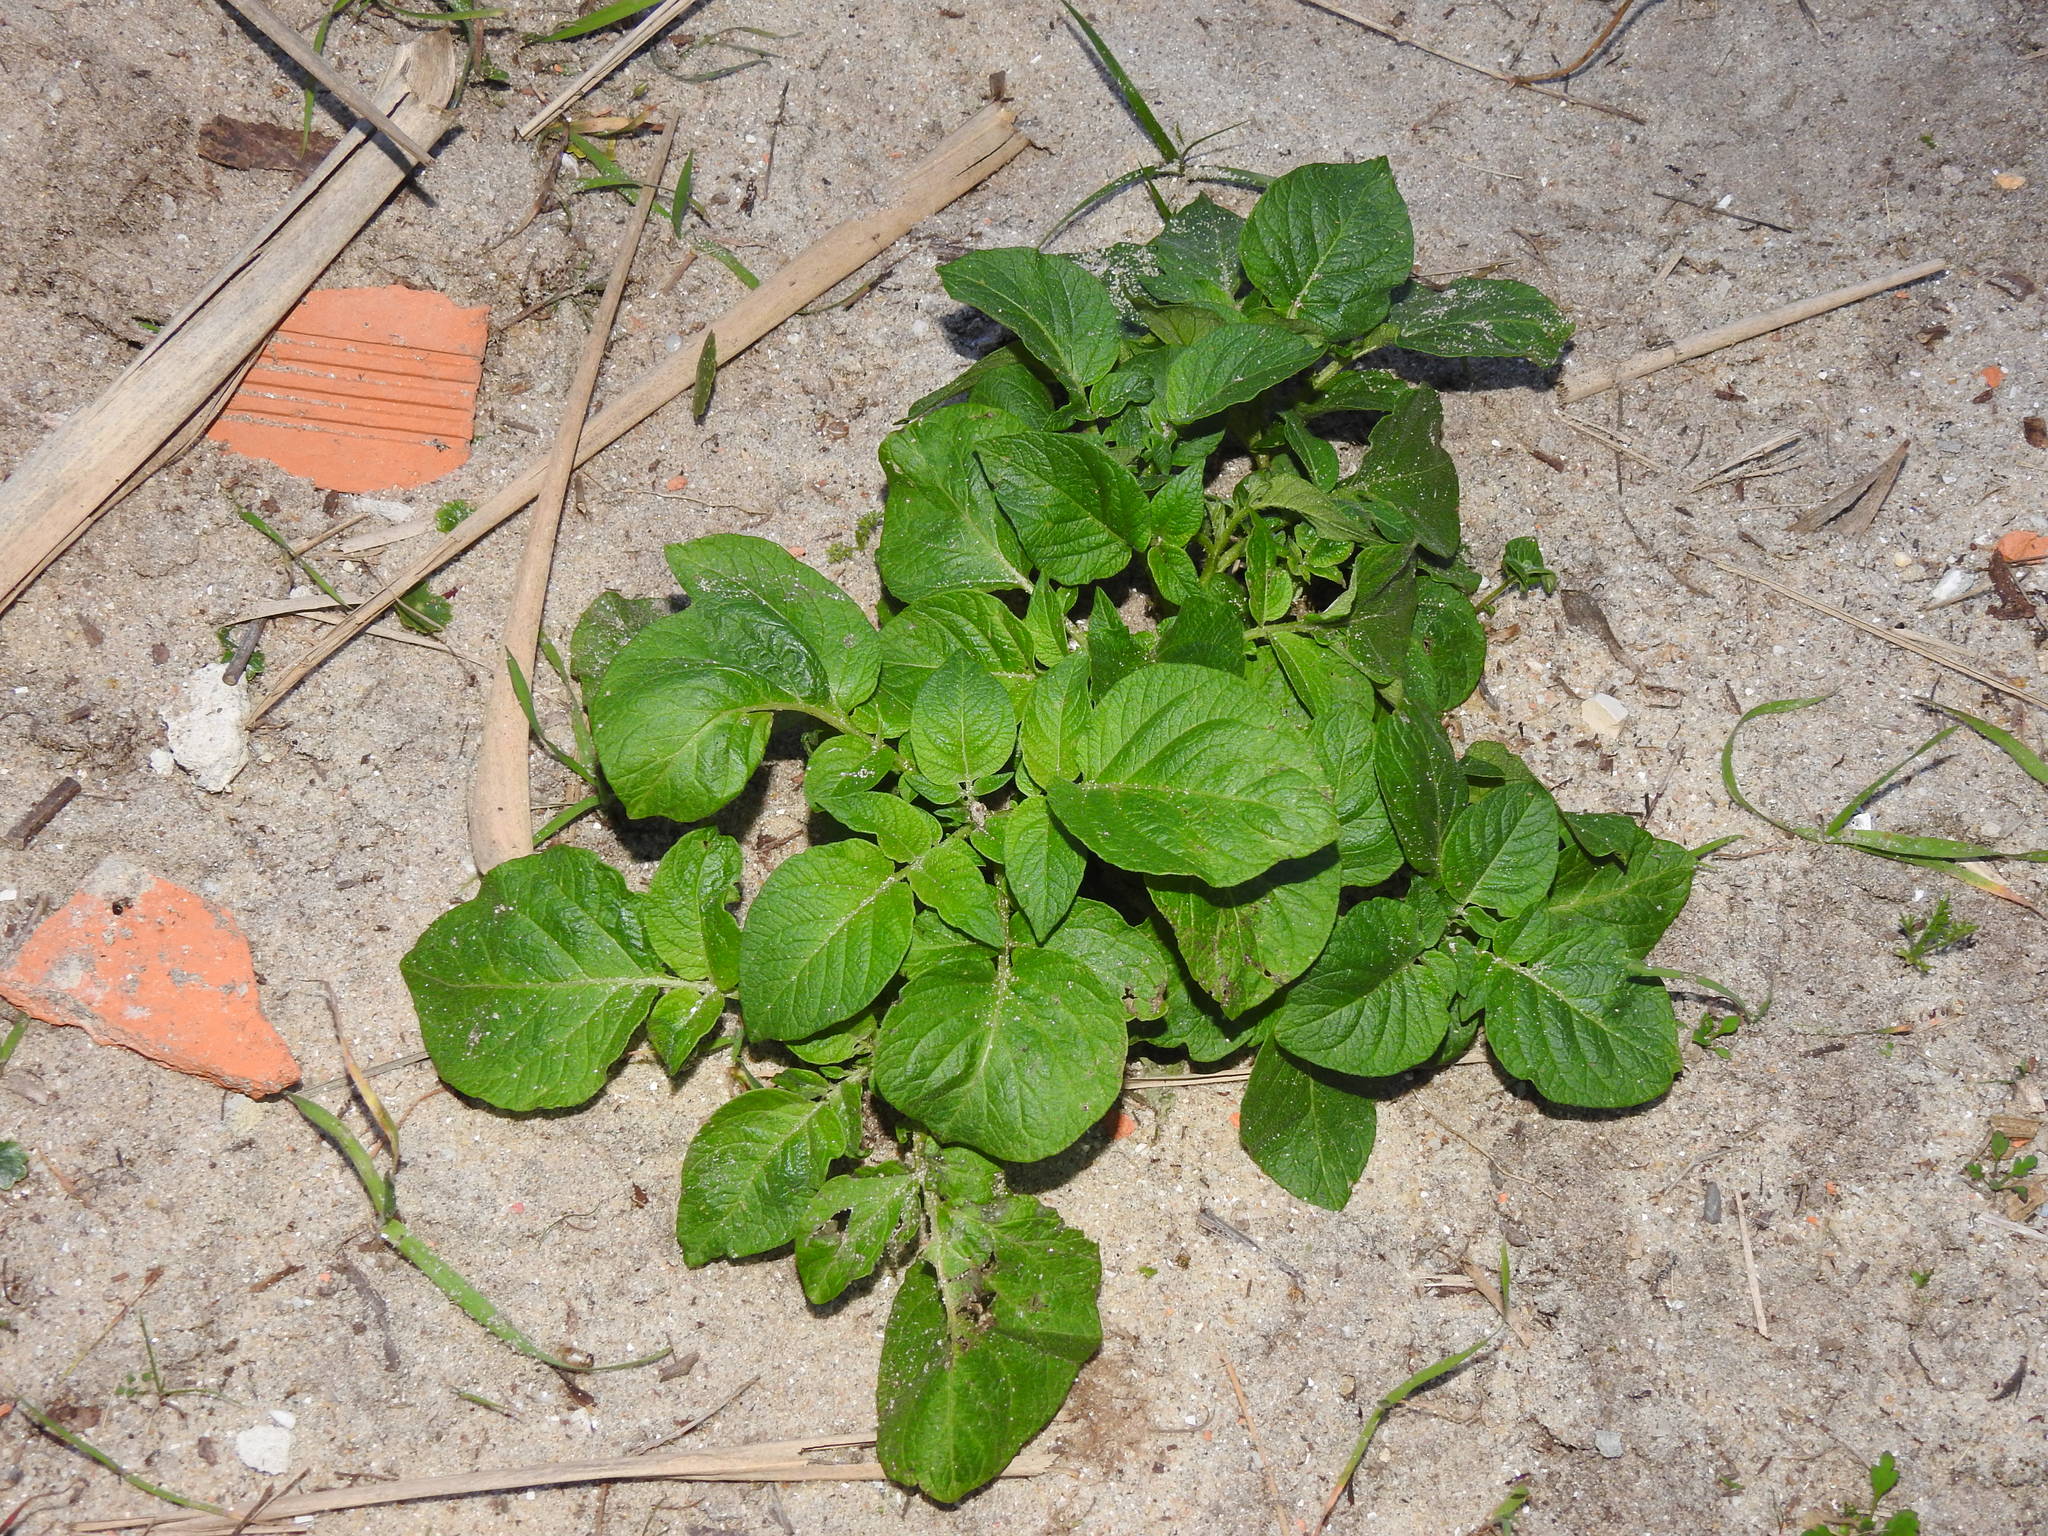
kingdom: Plantae
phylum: Tracheophyta
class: Magnoliopsida
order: Solanales
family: Solanaceae
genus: Solanum
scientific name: Solanum tuberosum
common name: Potato
